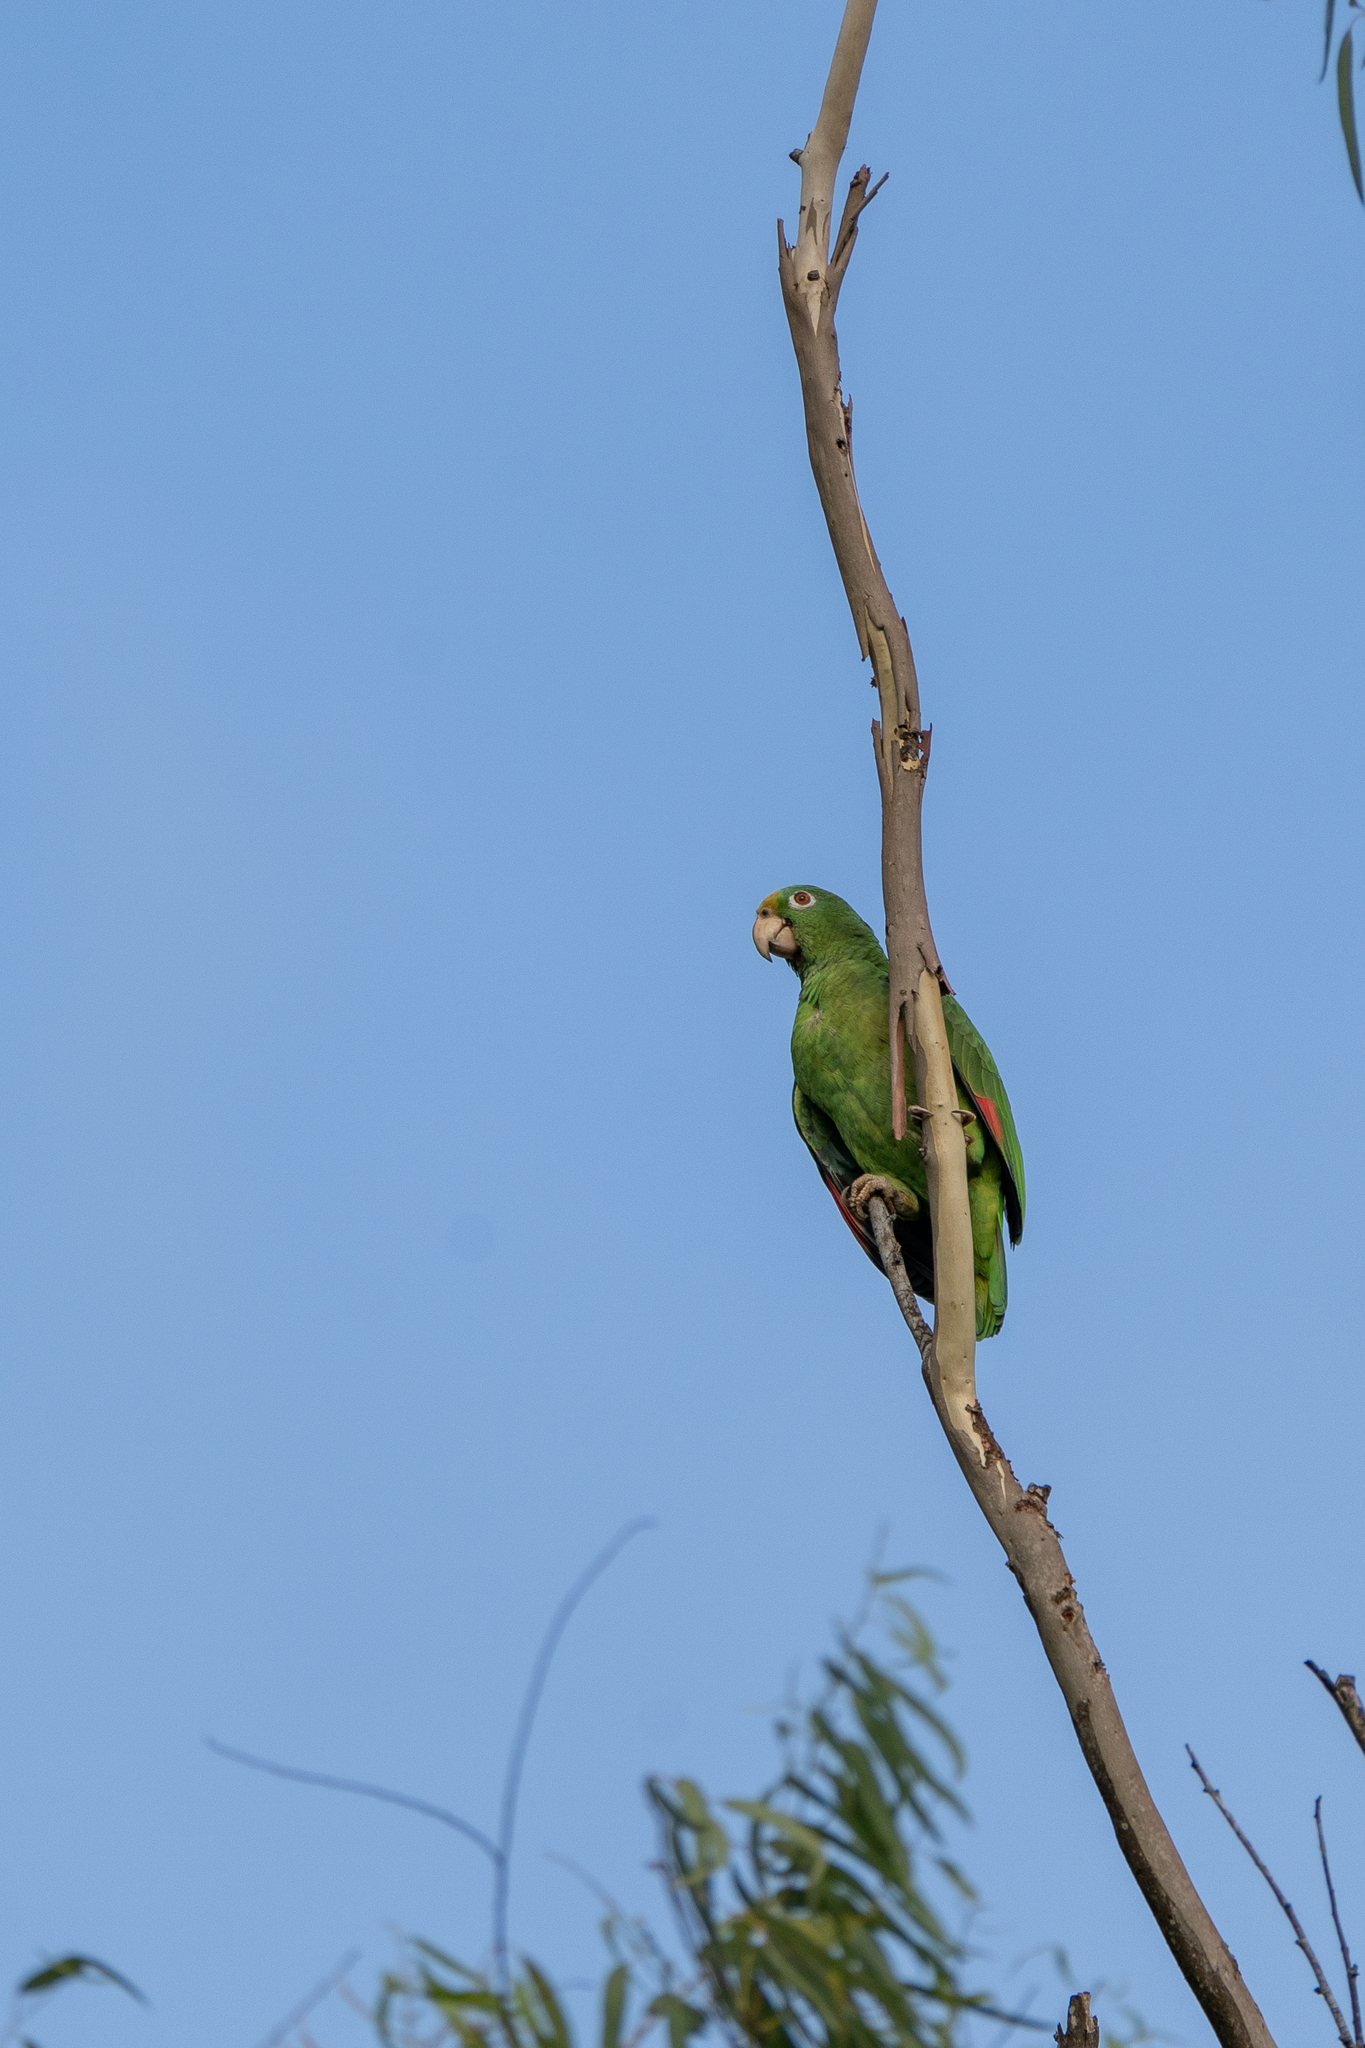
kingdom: Animalia
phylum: Chordata
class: Aves
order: Psittaciformes
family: Psittacidae
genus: Amazona
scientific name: Amazona ochrocephala
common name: Yellow-crowned amazon
